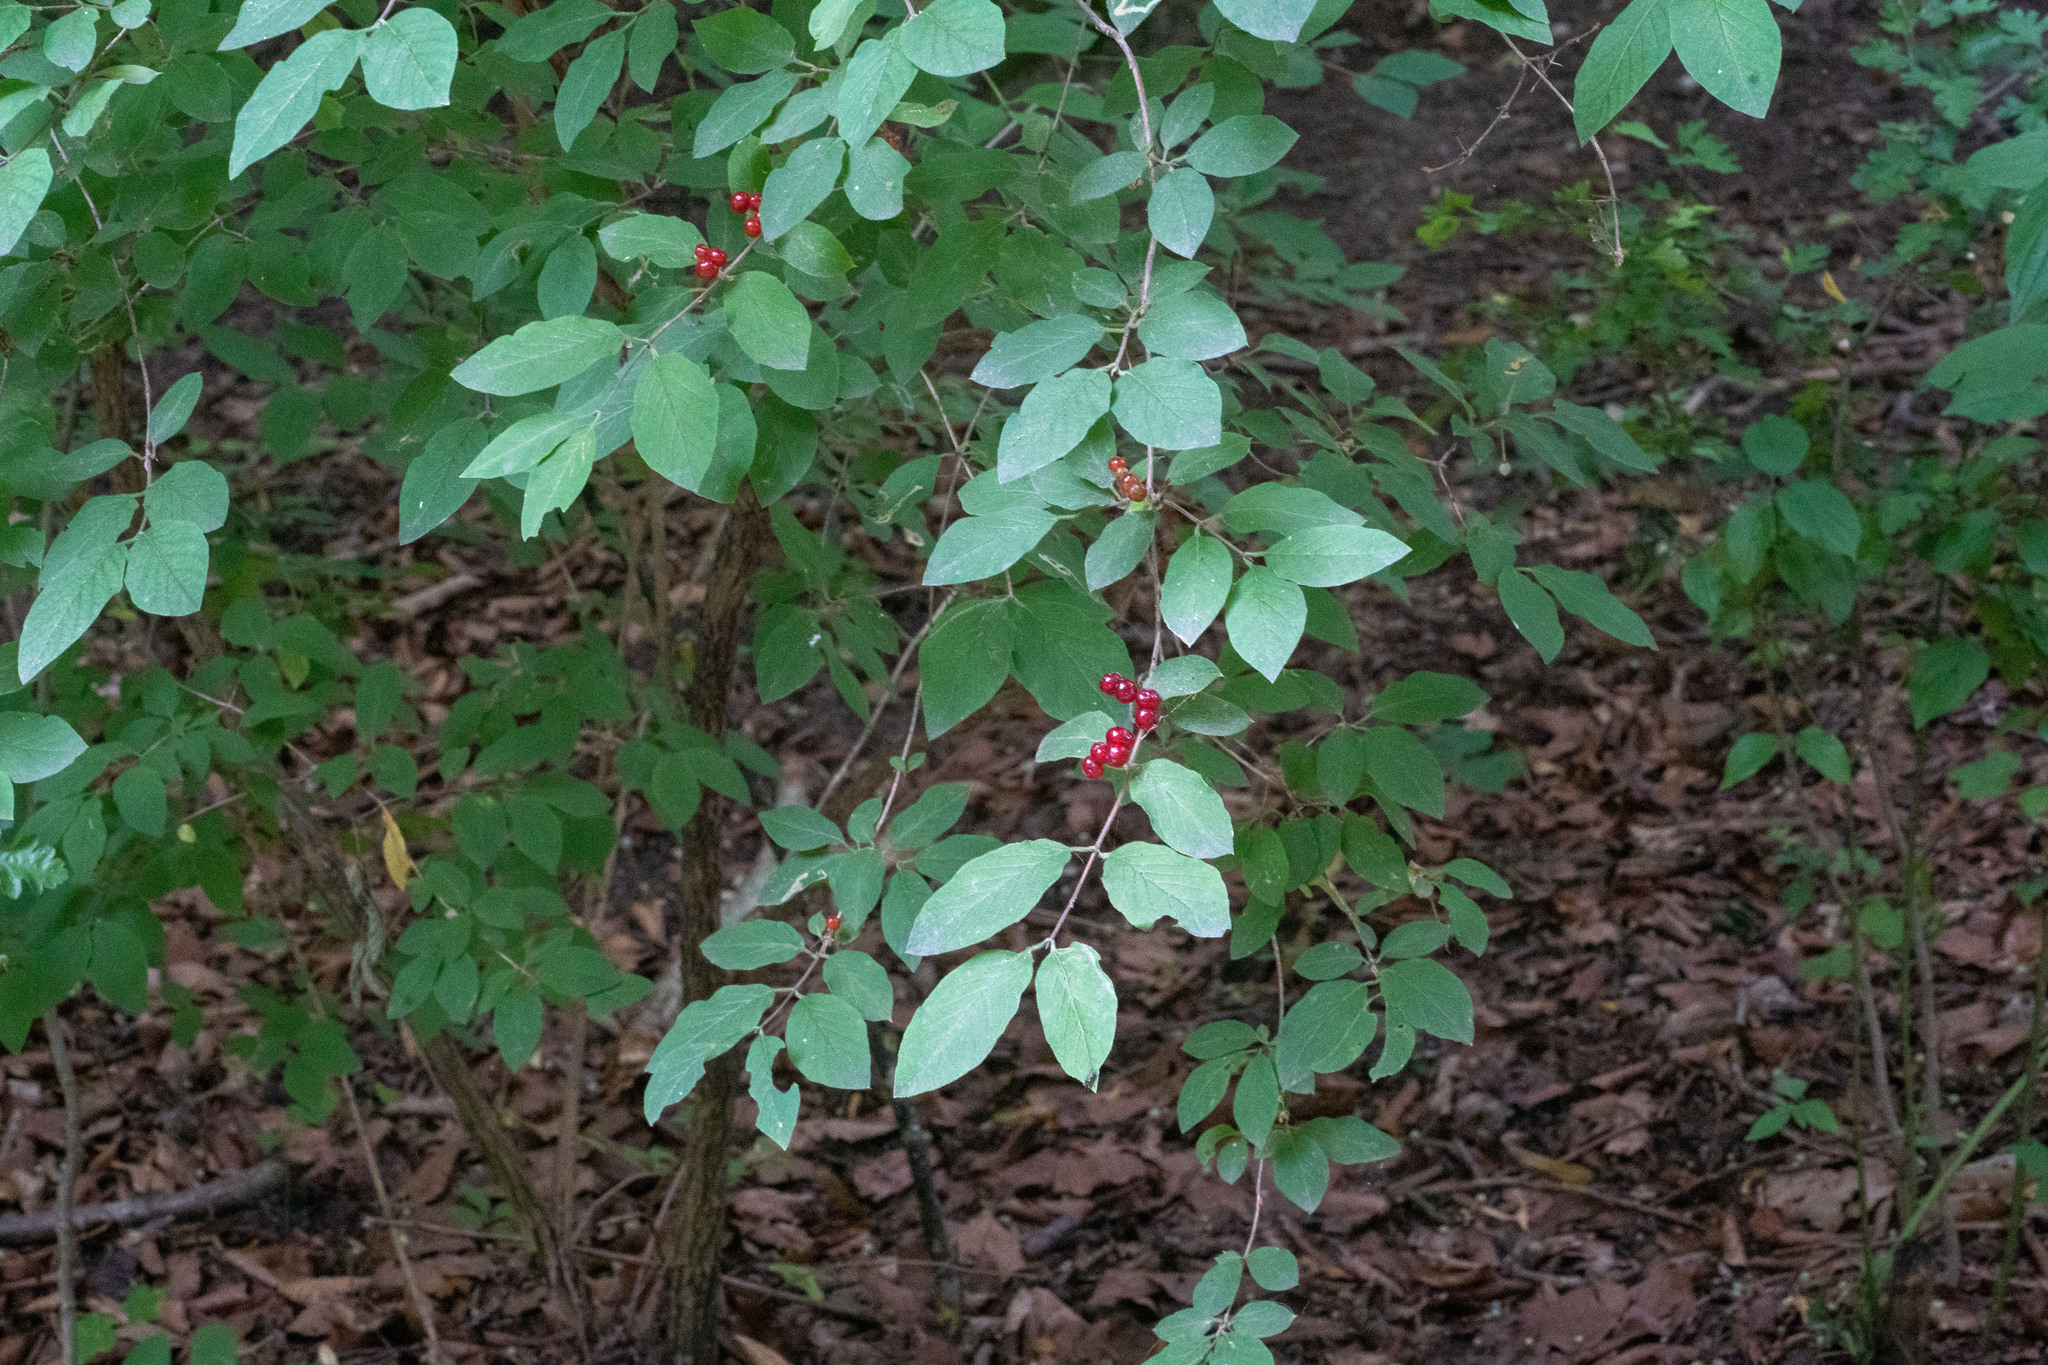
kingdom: Plantae
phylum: Tracheophyta
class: Magnoliopsida
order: Dipsacales
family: Caprifoliaceae
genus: Lonicera
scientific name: Lonicera xylosteum
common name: Fly honeysuckle
